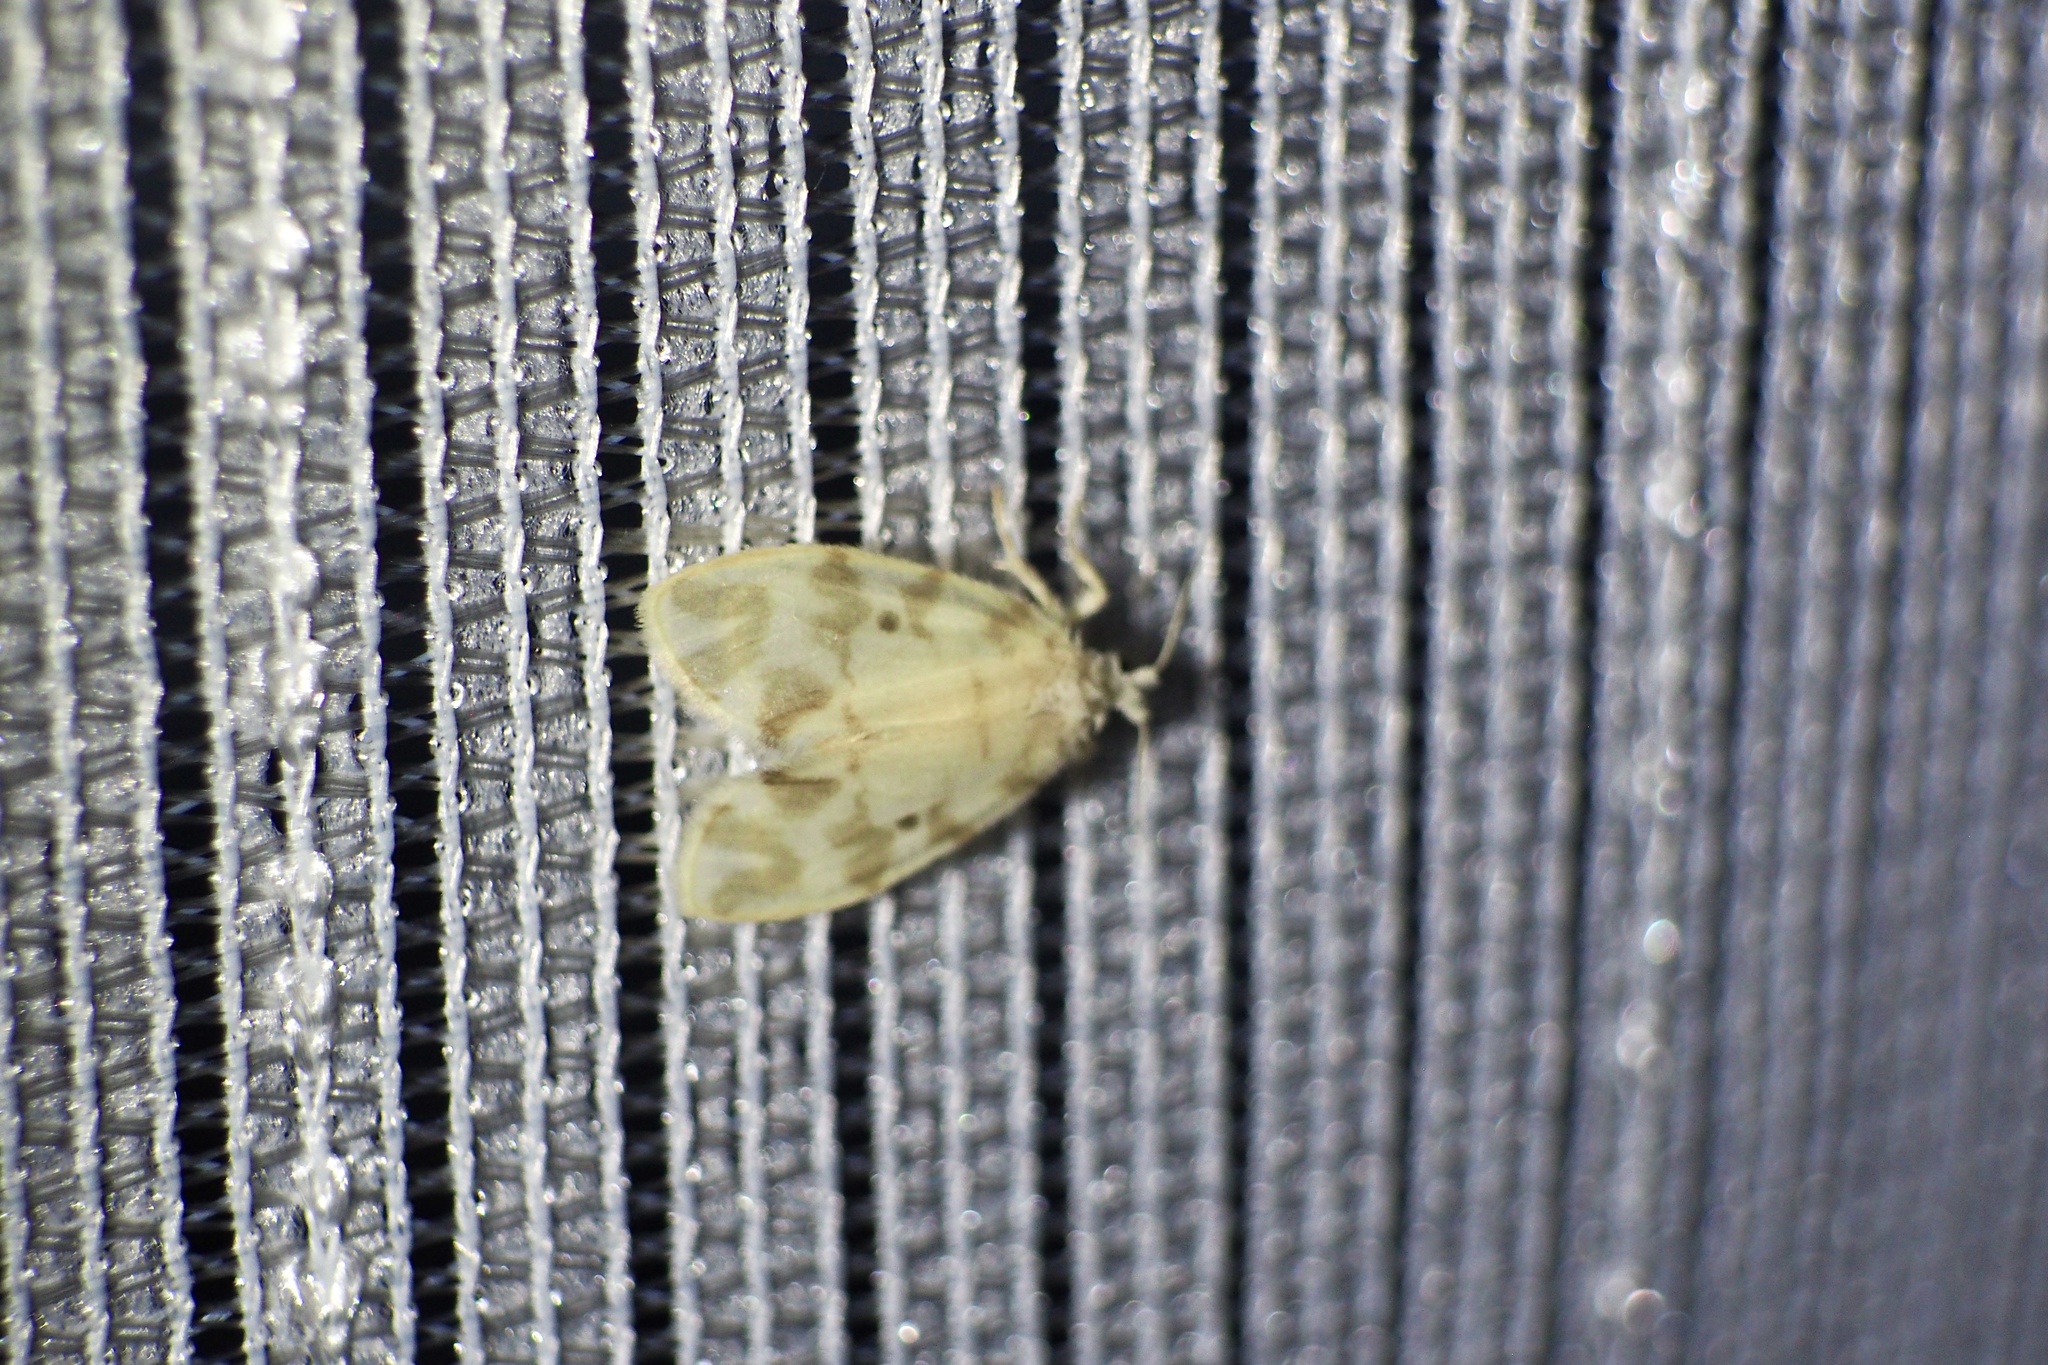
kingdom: Animalia
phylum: Arthropoda
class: Insecta
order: Lepidoptera
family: Erebidae
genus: Nudaria
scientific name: Nudaria ranruna
